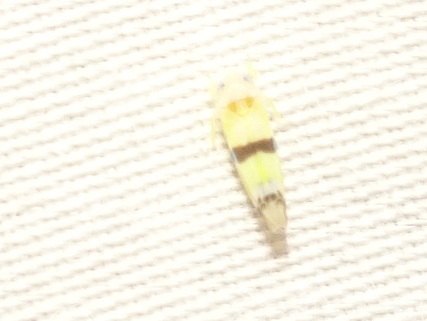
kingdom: Animalia
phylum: Arthropoda
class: Insecta
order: Hemiptera
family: Cicadellidae
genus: Empoa
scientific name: Empoa gillettei
